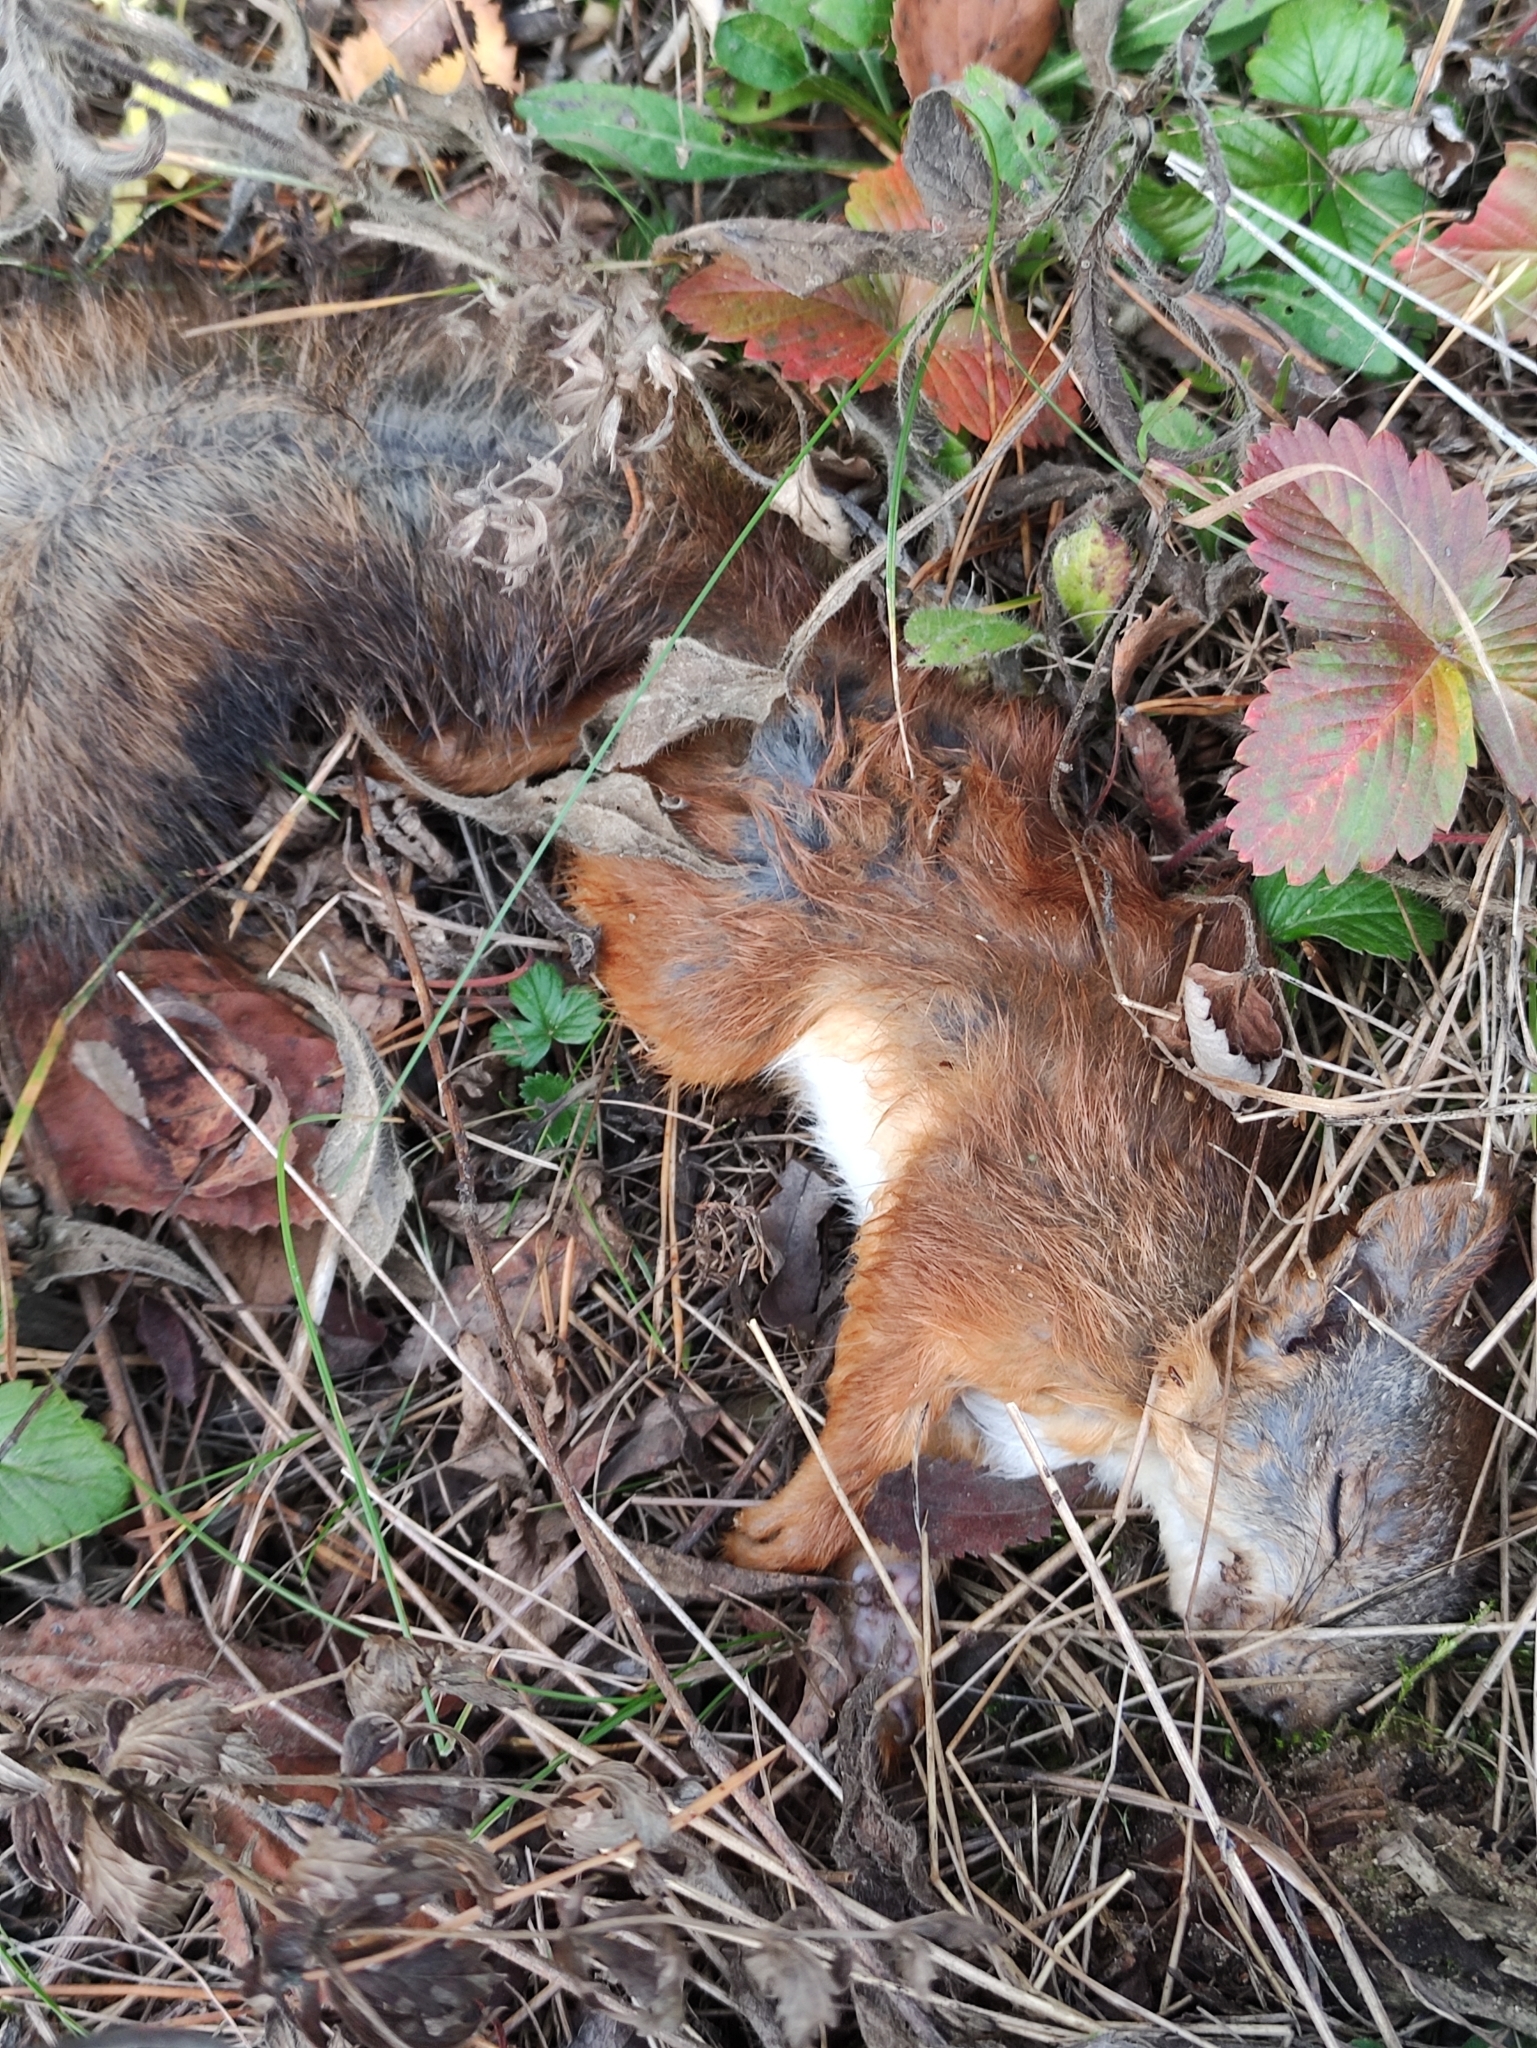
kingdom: Animalia
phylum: Chordata
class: Mammalia
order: Rodentia
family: Sciuridae
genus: Sciurus
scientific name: Sciurus vulgaris
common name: Eurasian red squirrel
